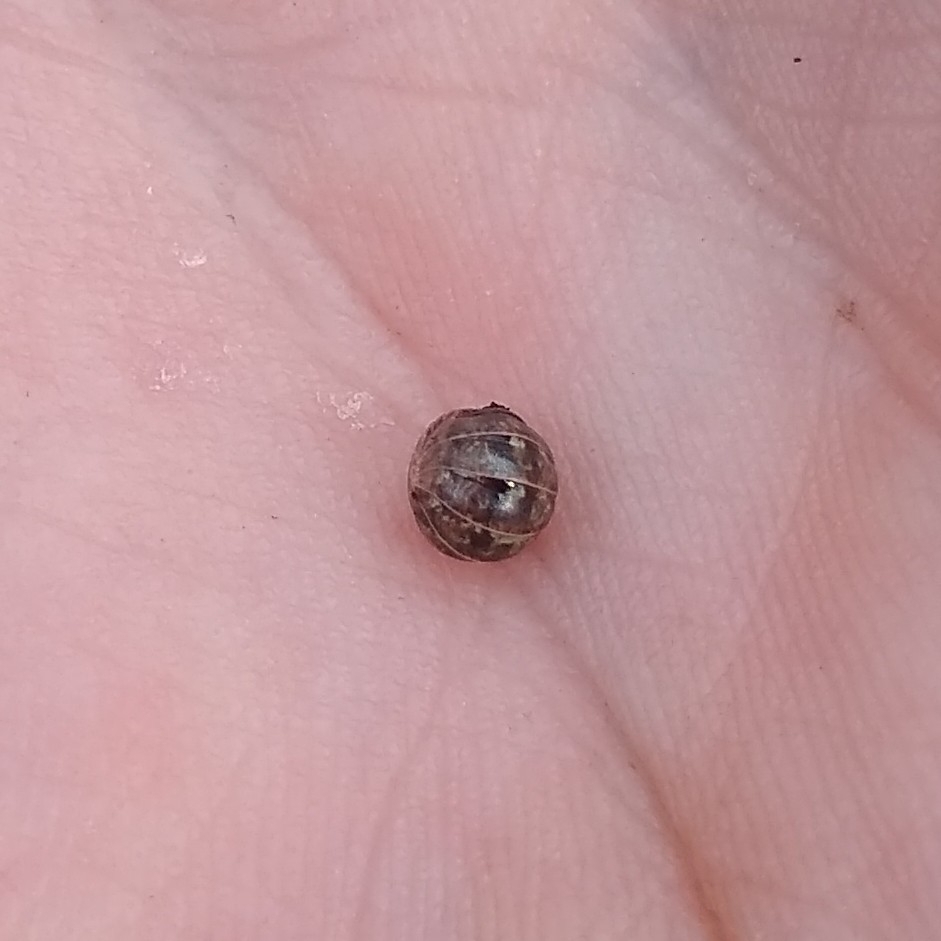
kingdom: Animalia
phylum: Arthropoda
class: Malacostraca
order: Isopoda
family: Armadillidiidae
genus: Armadillidium
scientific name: Armadillidium nasatum
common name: Isopod
